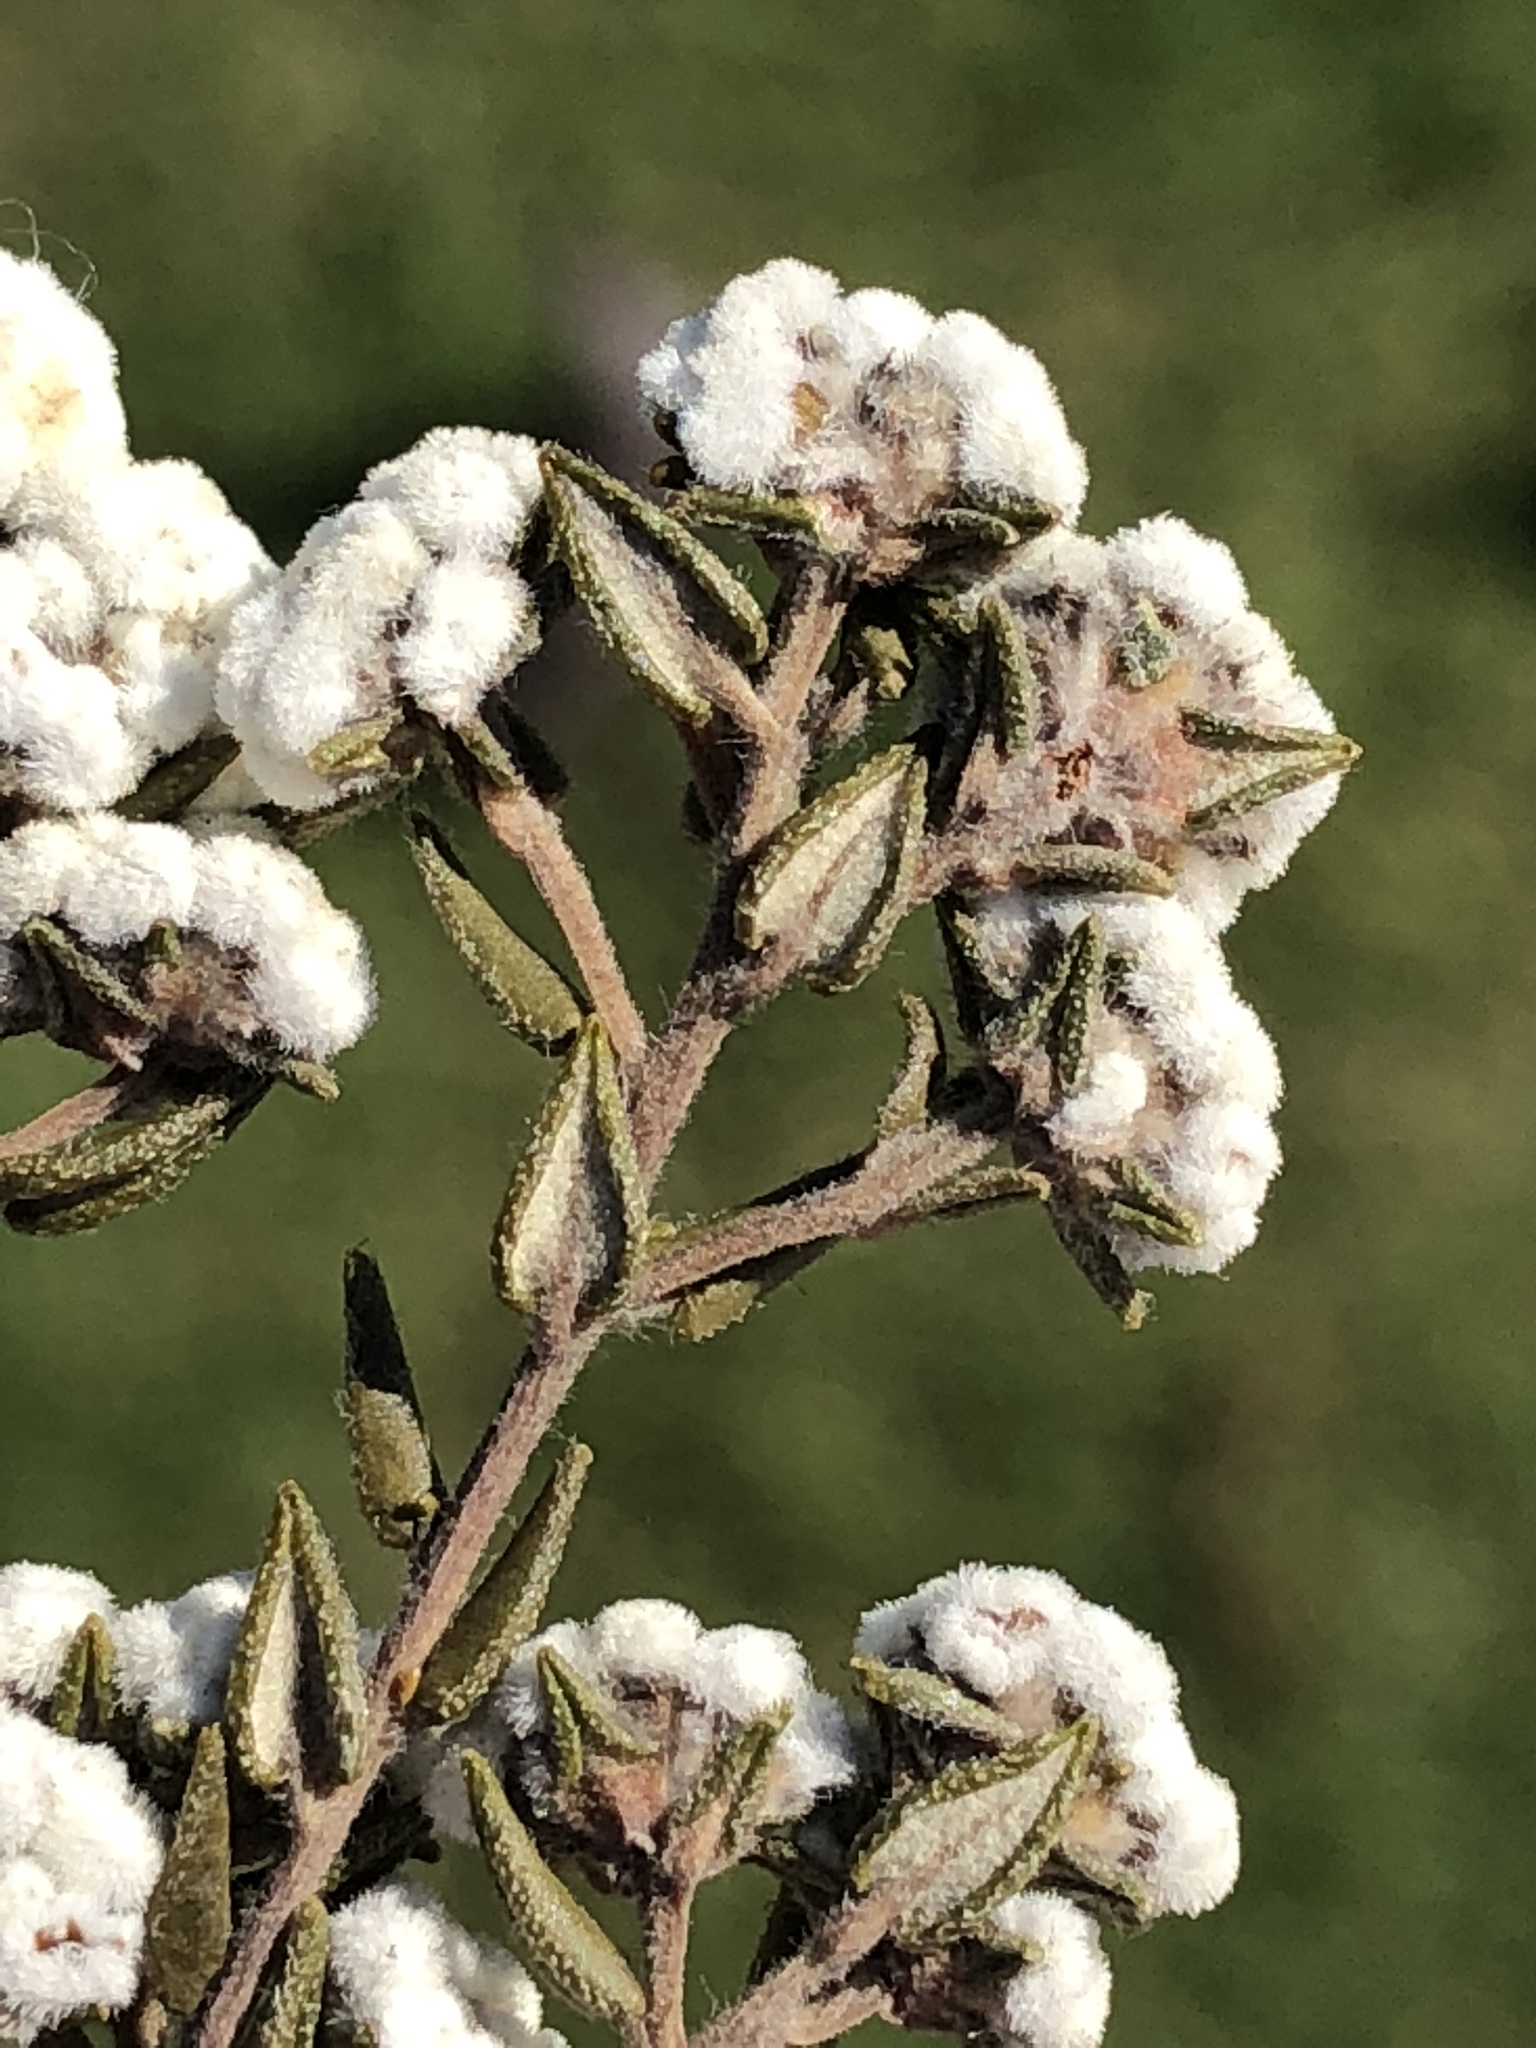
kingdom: Plantae
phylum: Tracheophyta
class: Magnoliopsida
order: Rosales
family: Rhamnaceae
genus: Phylica
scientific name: Phylica diffusa
